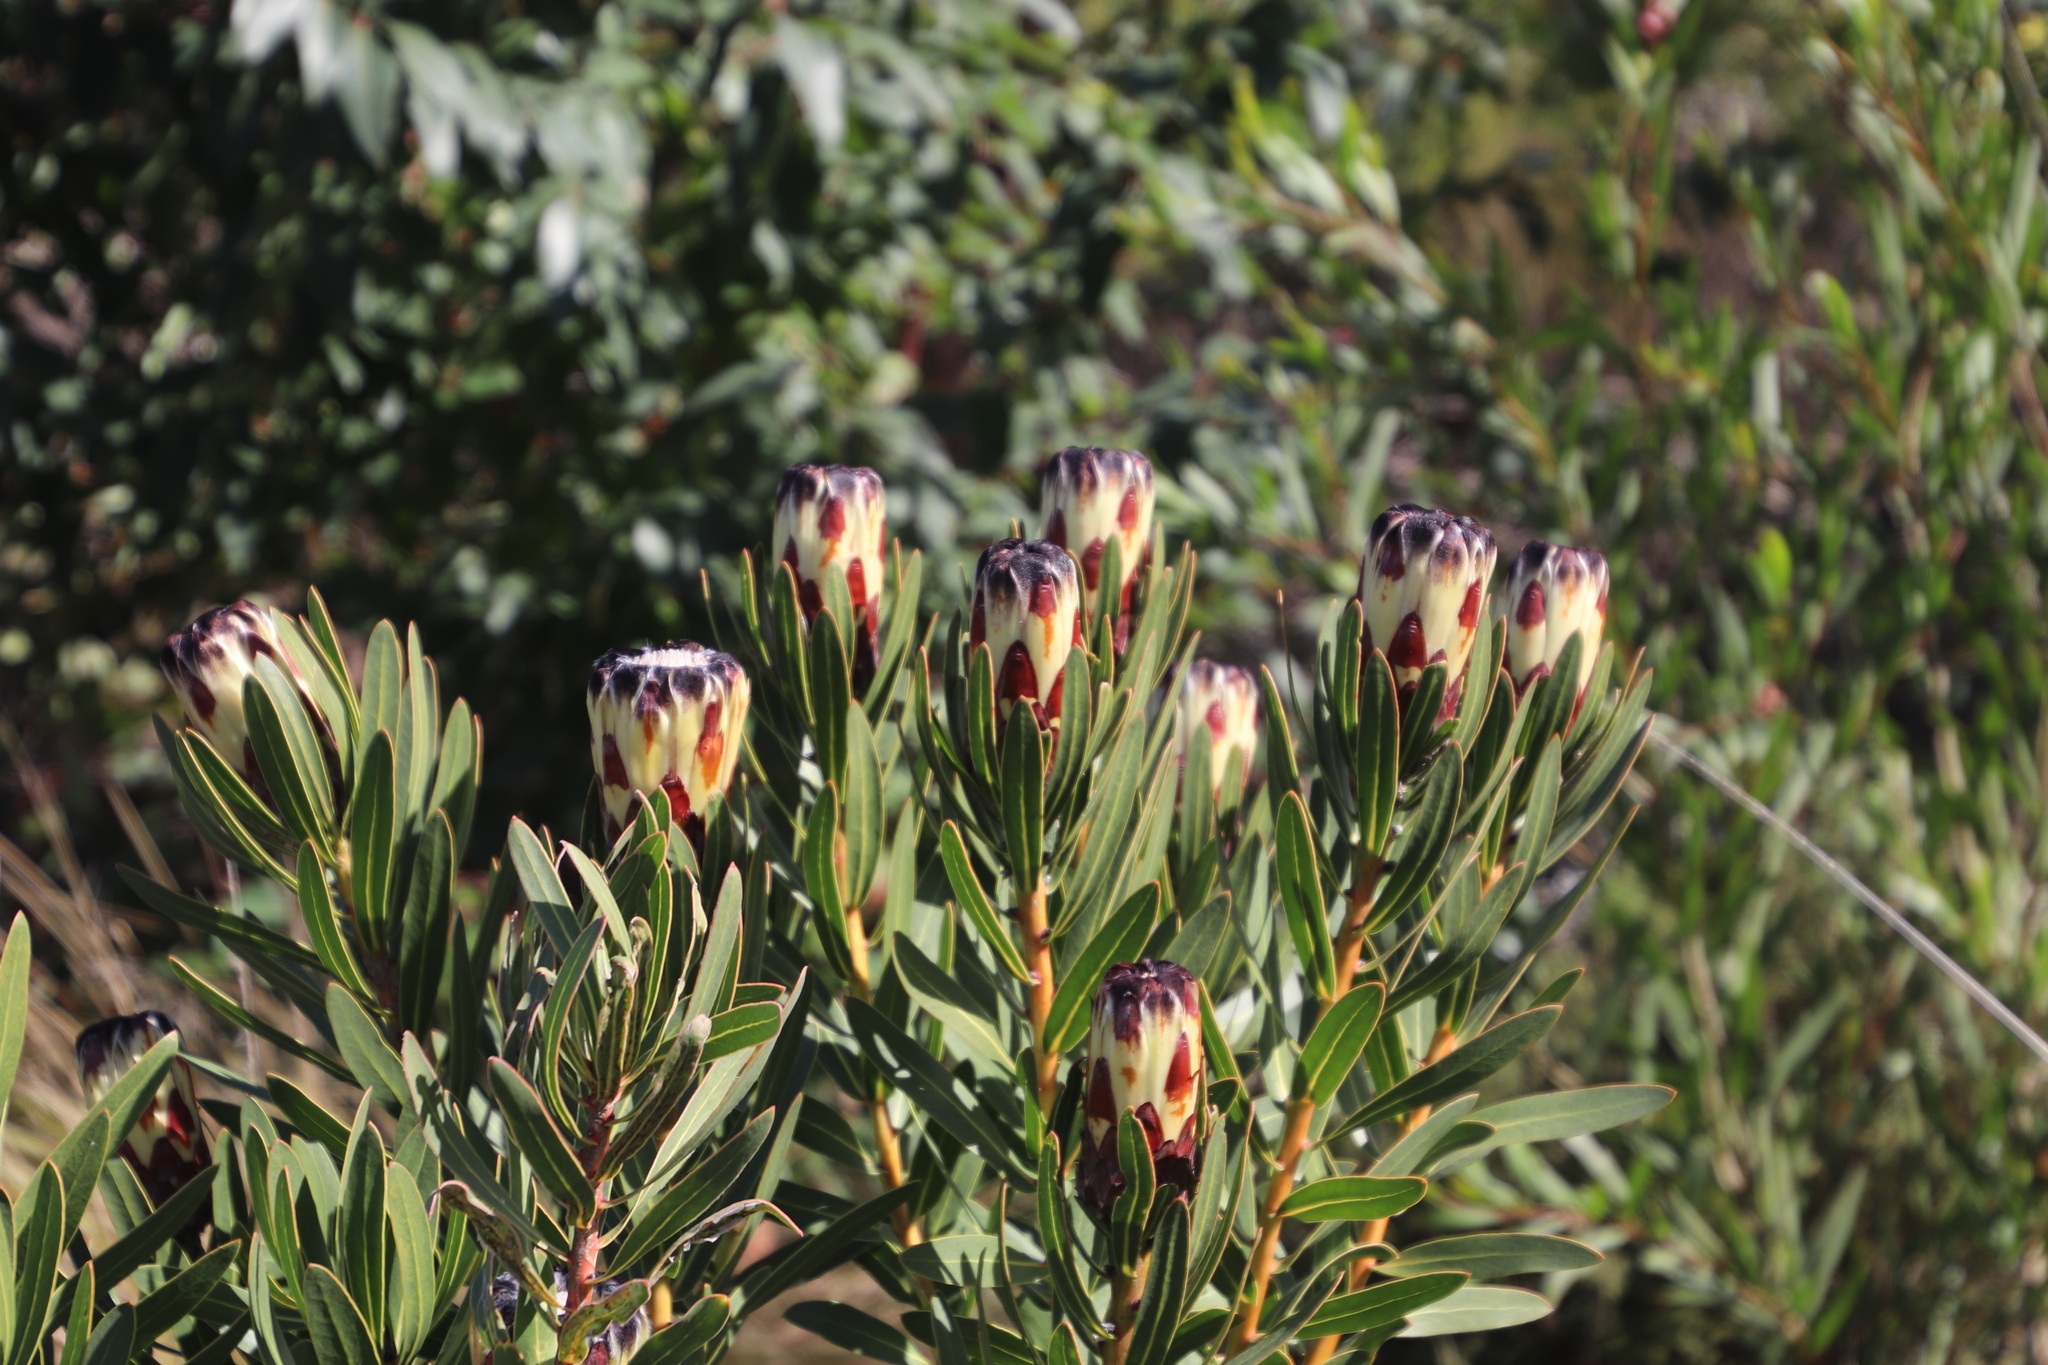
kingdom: Plantae
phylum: Tracheophyta
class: Magnoliopsida
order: Proteales
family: Proteaceae
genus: Protea
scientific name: Protea lepidocarpodendron
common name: Black-bearded protea
